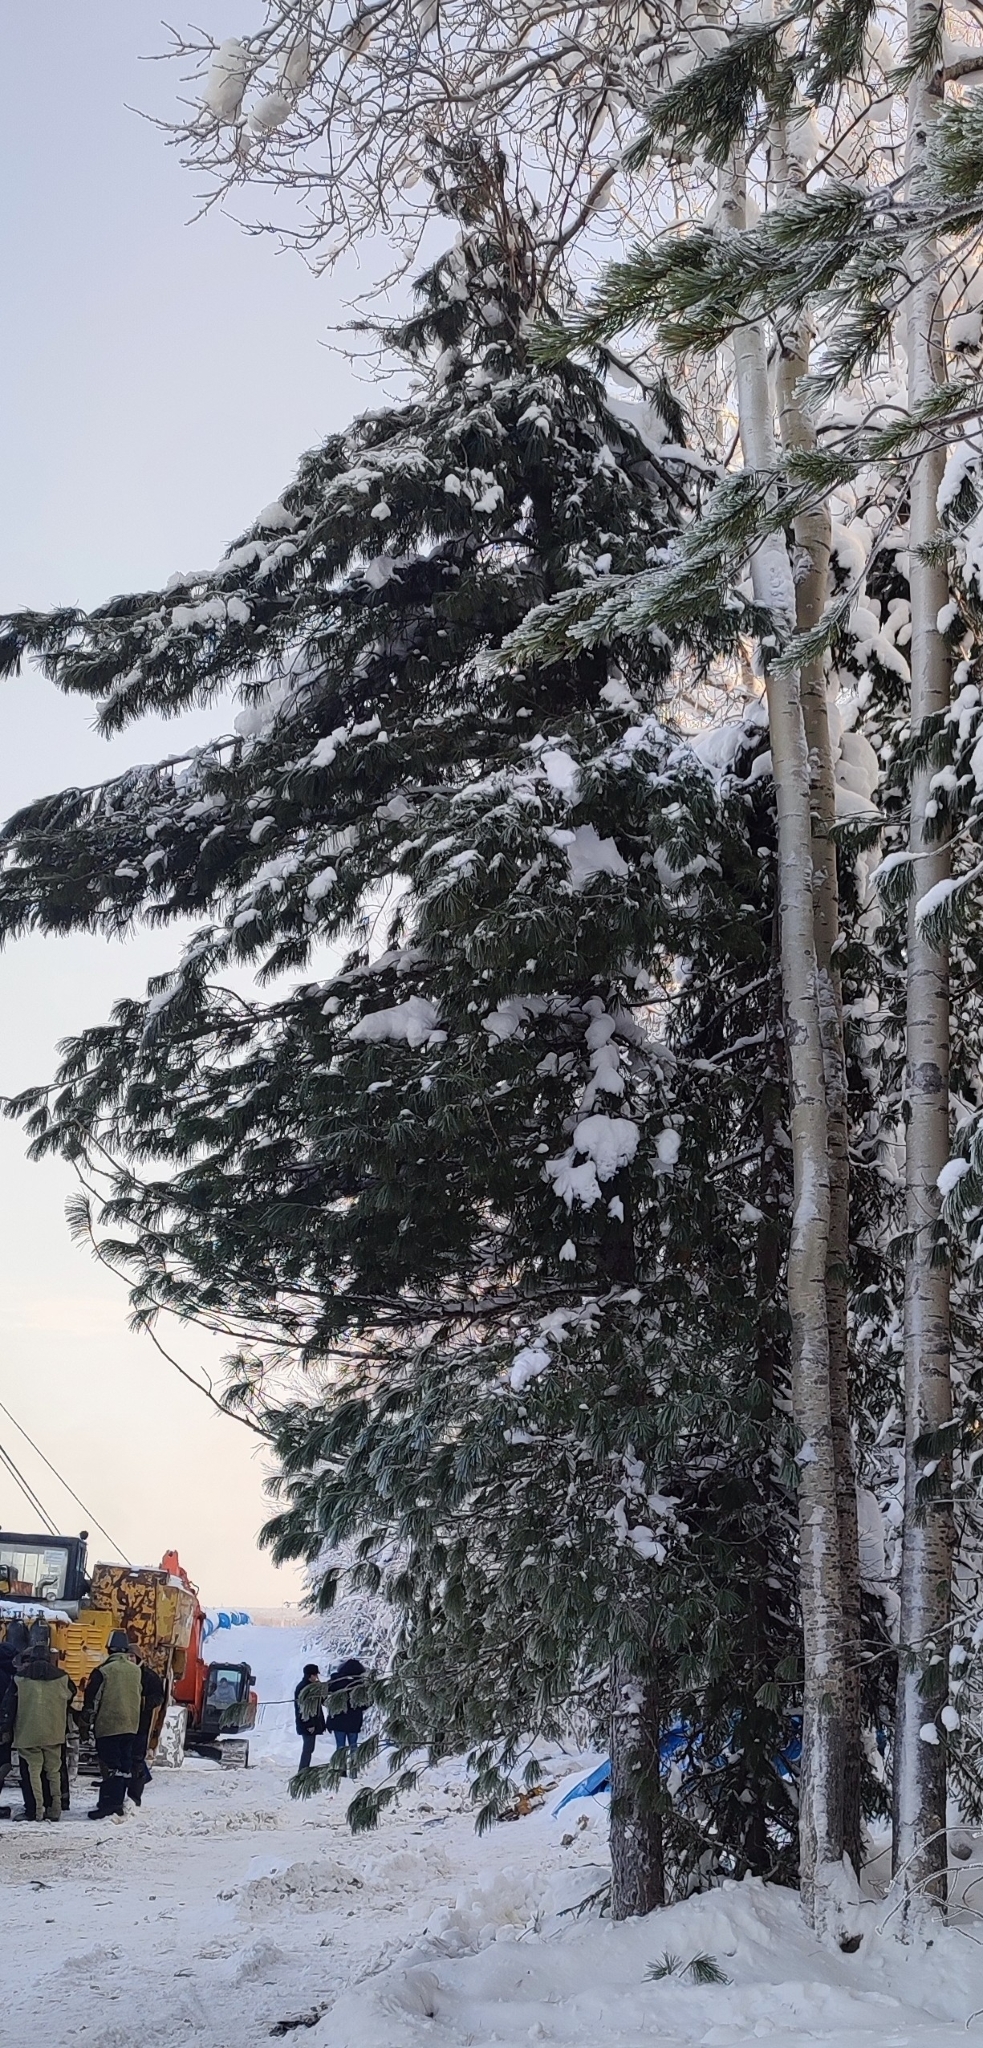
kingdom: Plantae
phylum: Tracheophyta
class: Pinopsida
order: Pinales
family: Pinaceae
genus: Pinus
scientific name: Pinus sibirica
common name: Siberian pine
